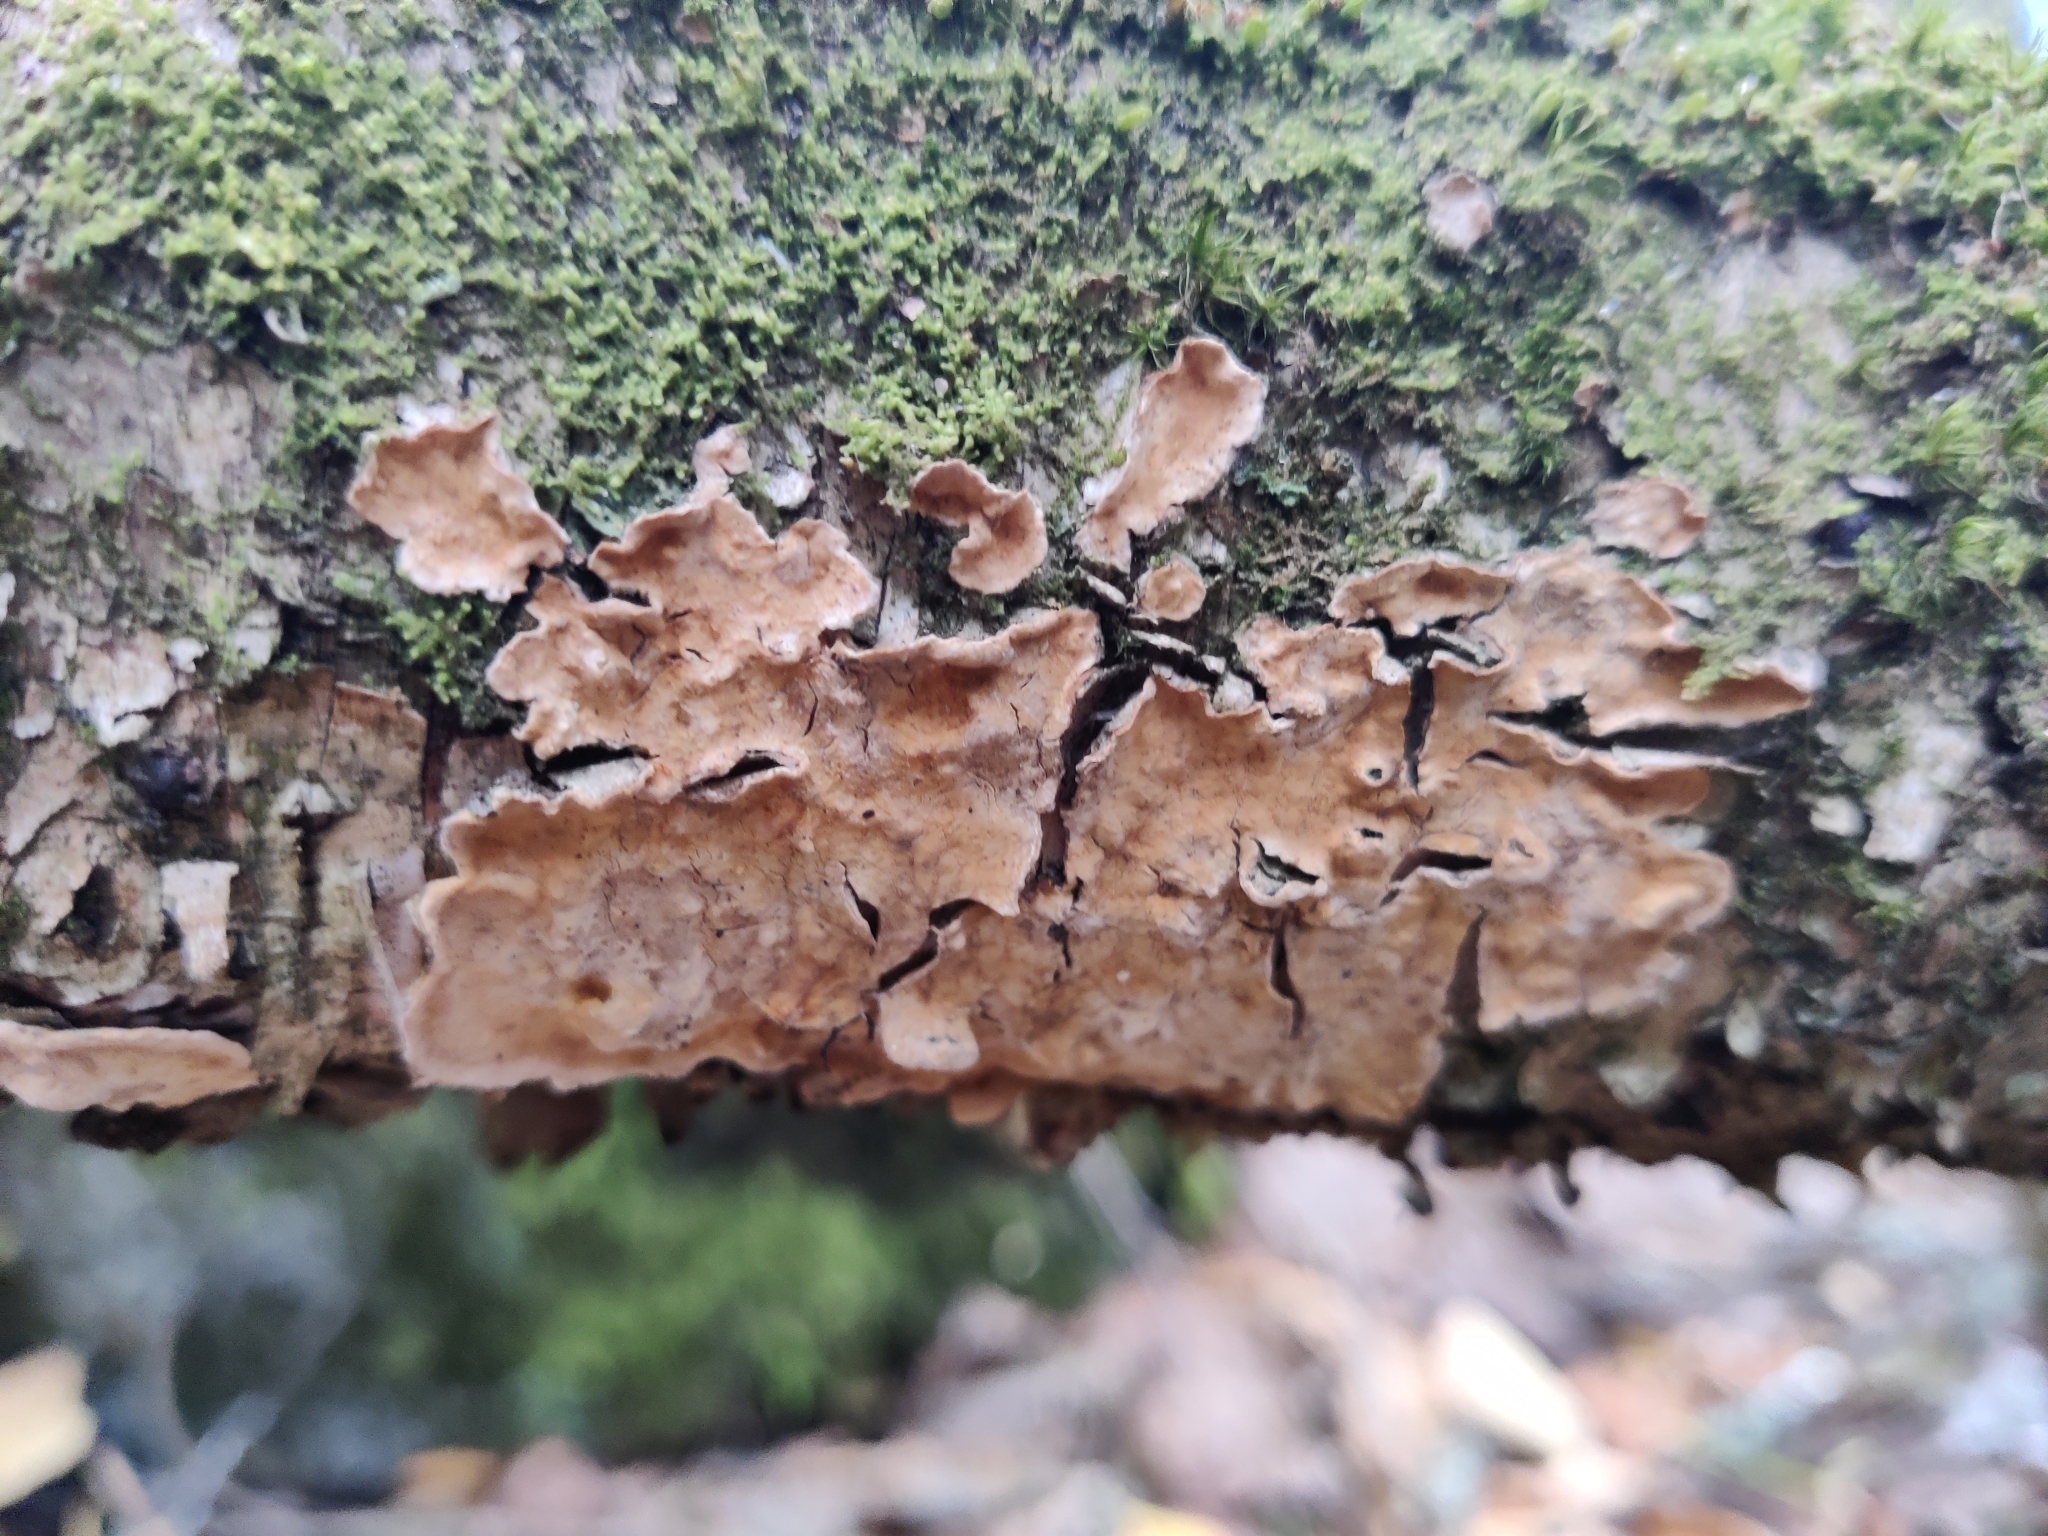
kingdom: Fungi
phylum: Basidiomycota
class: Agaricomycetes
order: Russulales
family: Stereaceae
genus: Stereum
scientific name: Stereum rugosum
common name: Bleeding broadleaf crust
